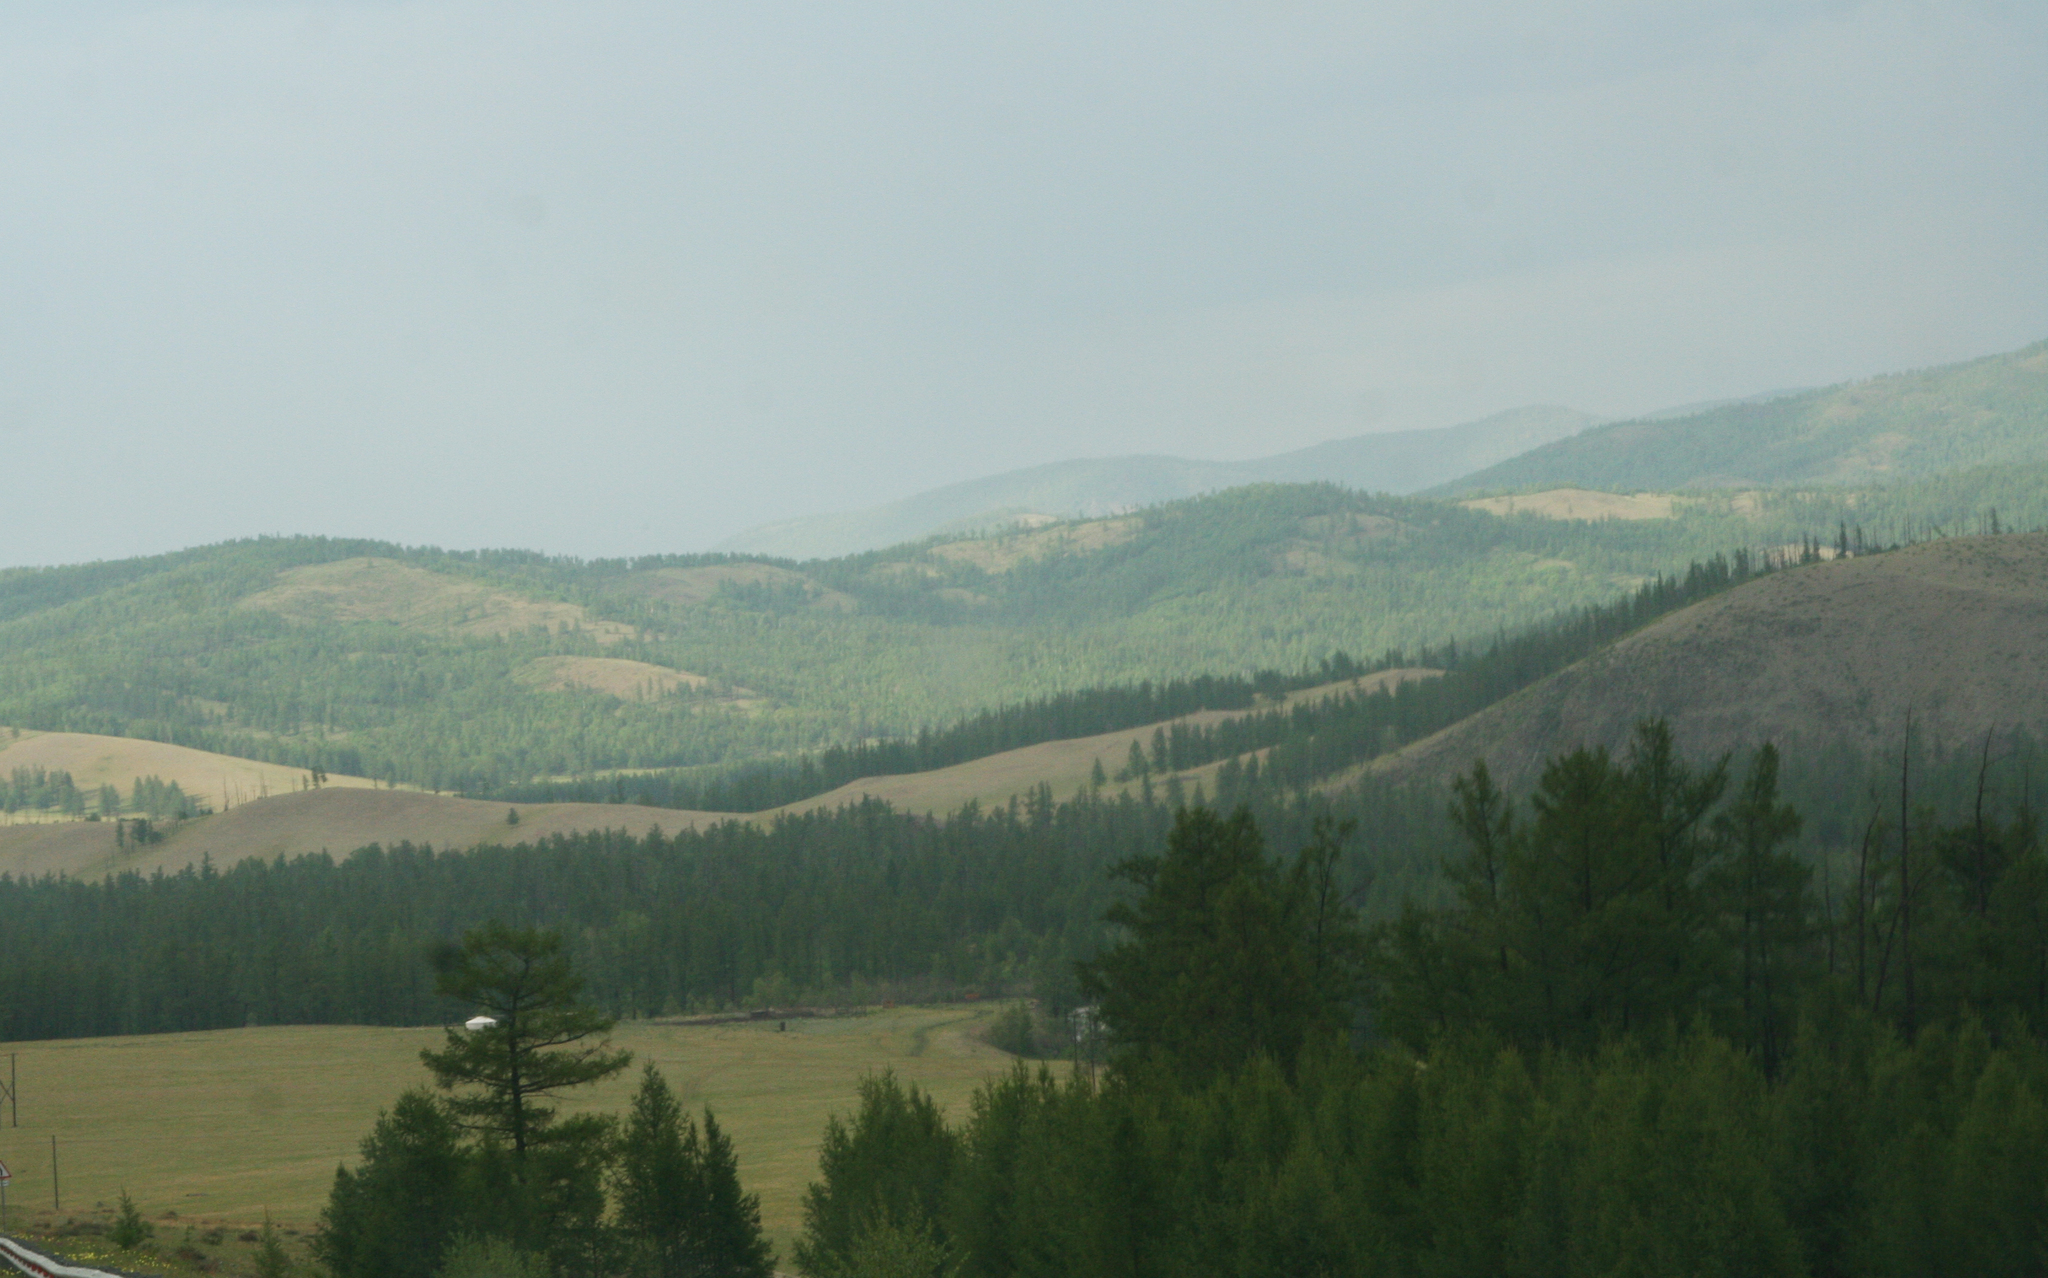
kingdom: Plantae
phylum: Tracheophyta
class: Pinopsida
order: Pinales
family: Pinaceae
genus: Larix
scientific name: Larix sibirica
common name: Siberian larch
